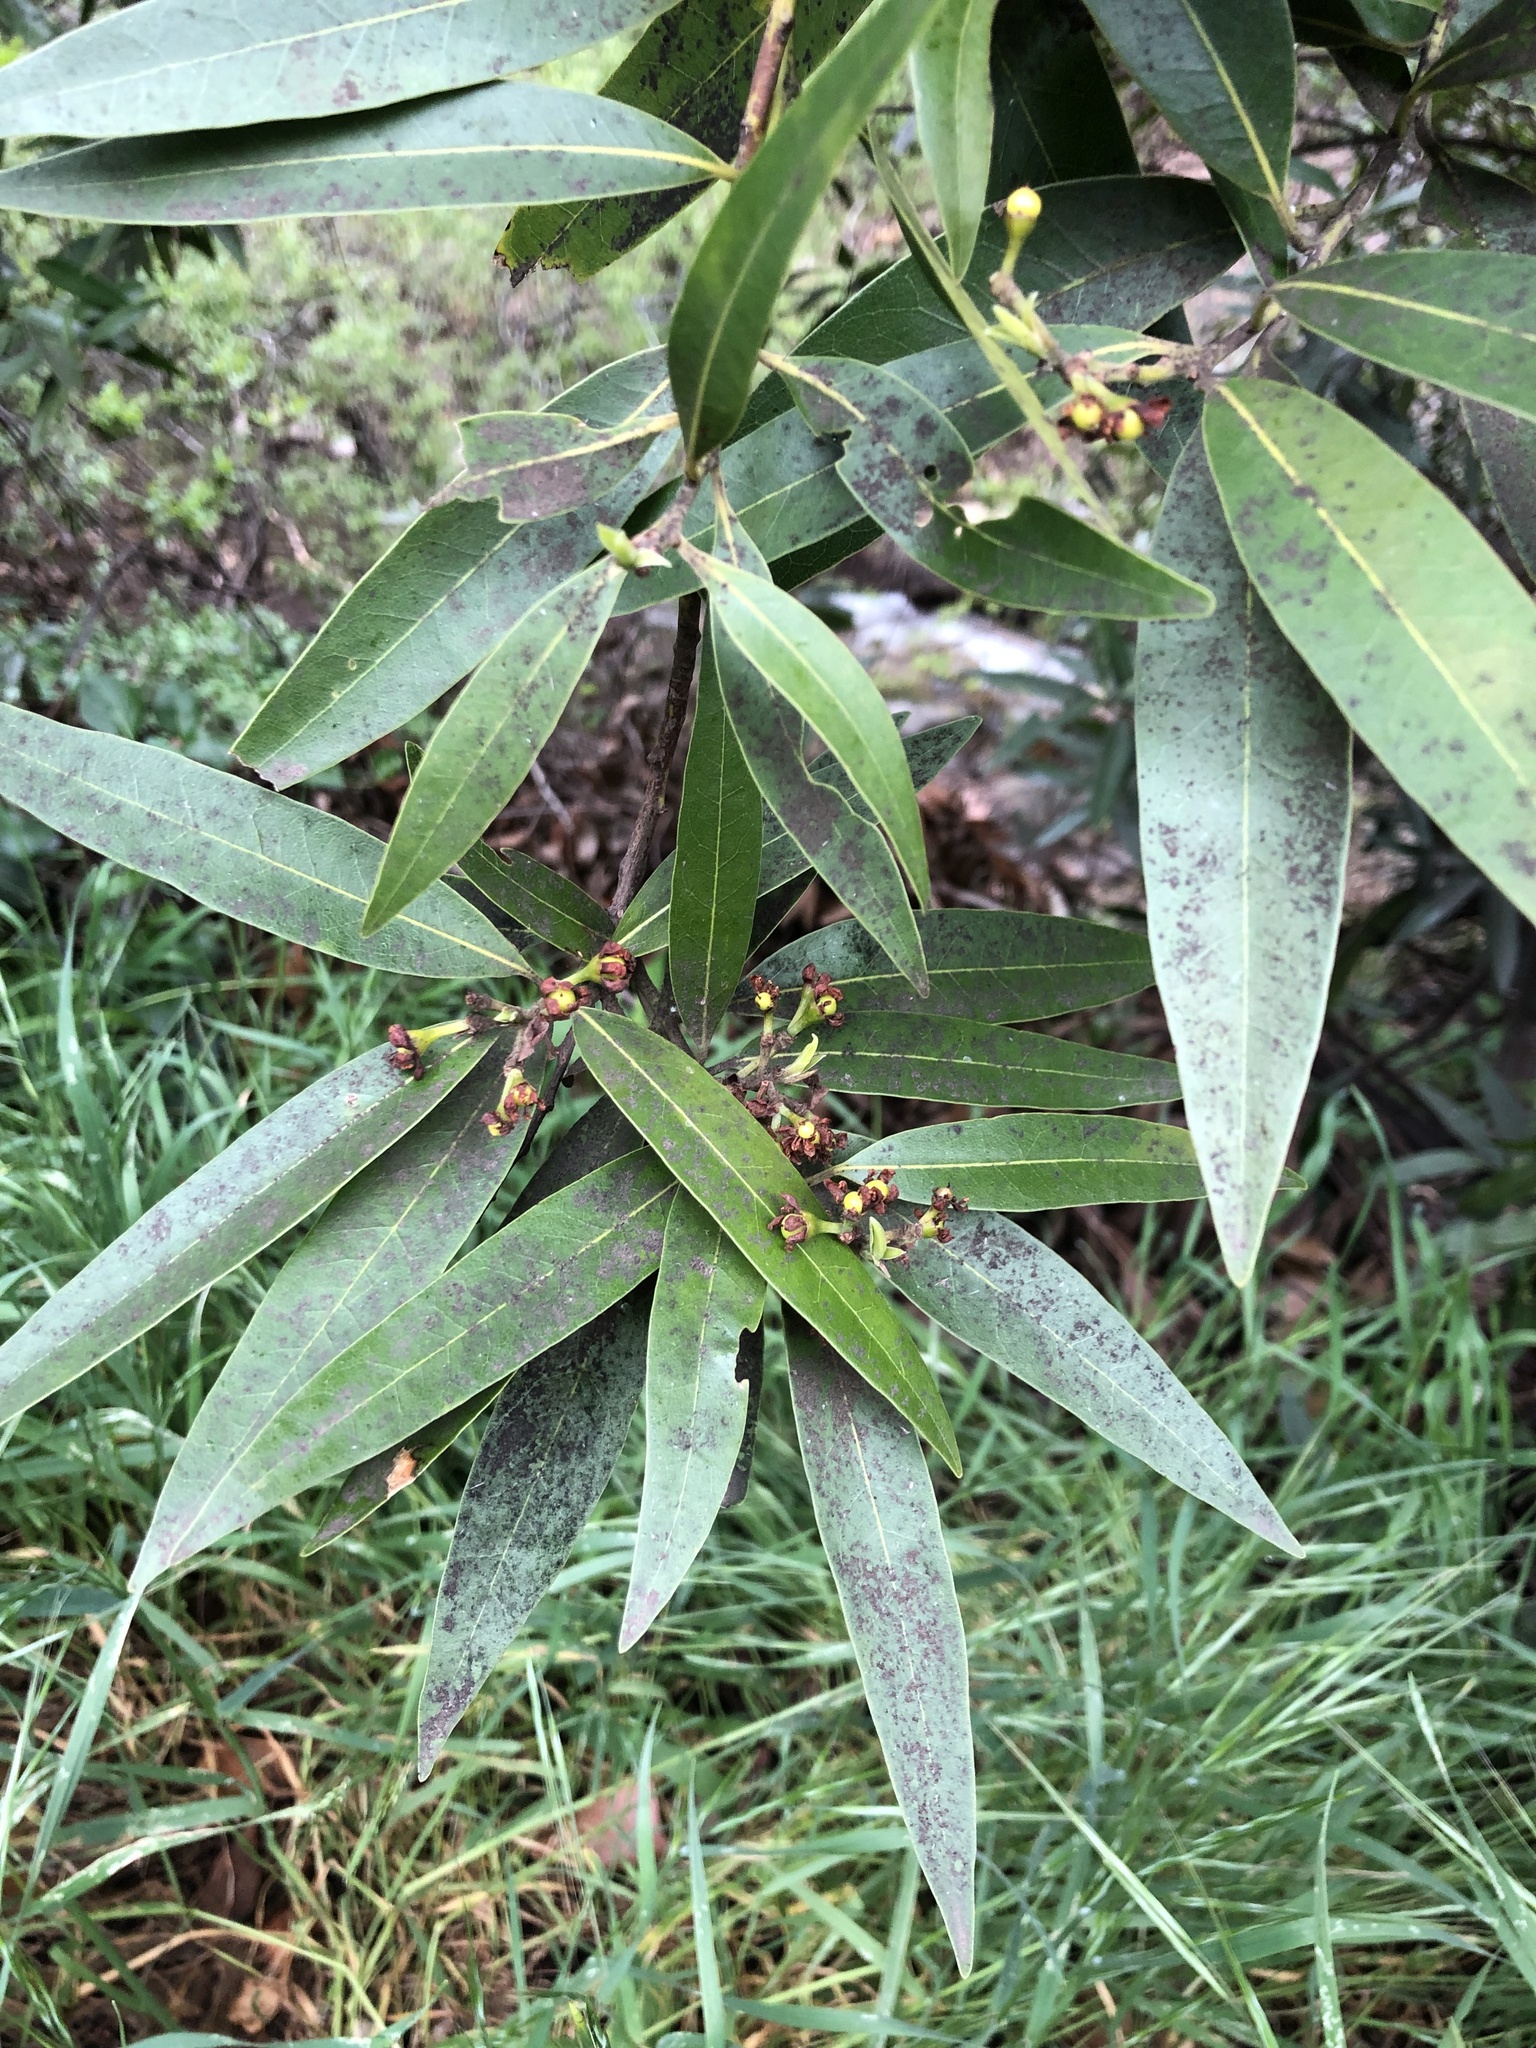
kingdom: Plantae
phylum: Tracheophyta
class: Magnoliopsida
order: Laurales
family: Lauraceae
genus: Umbellularia
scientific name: Umbellularia californica
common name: California bay
